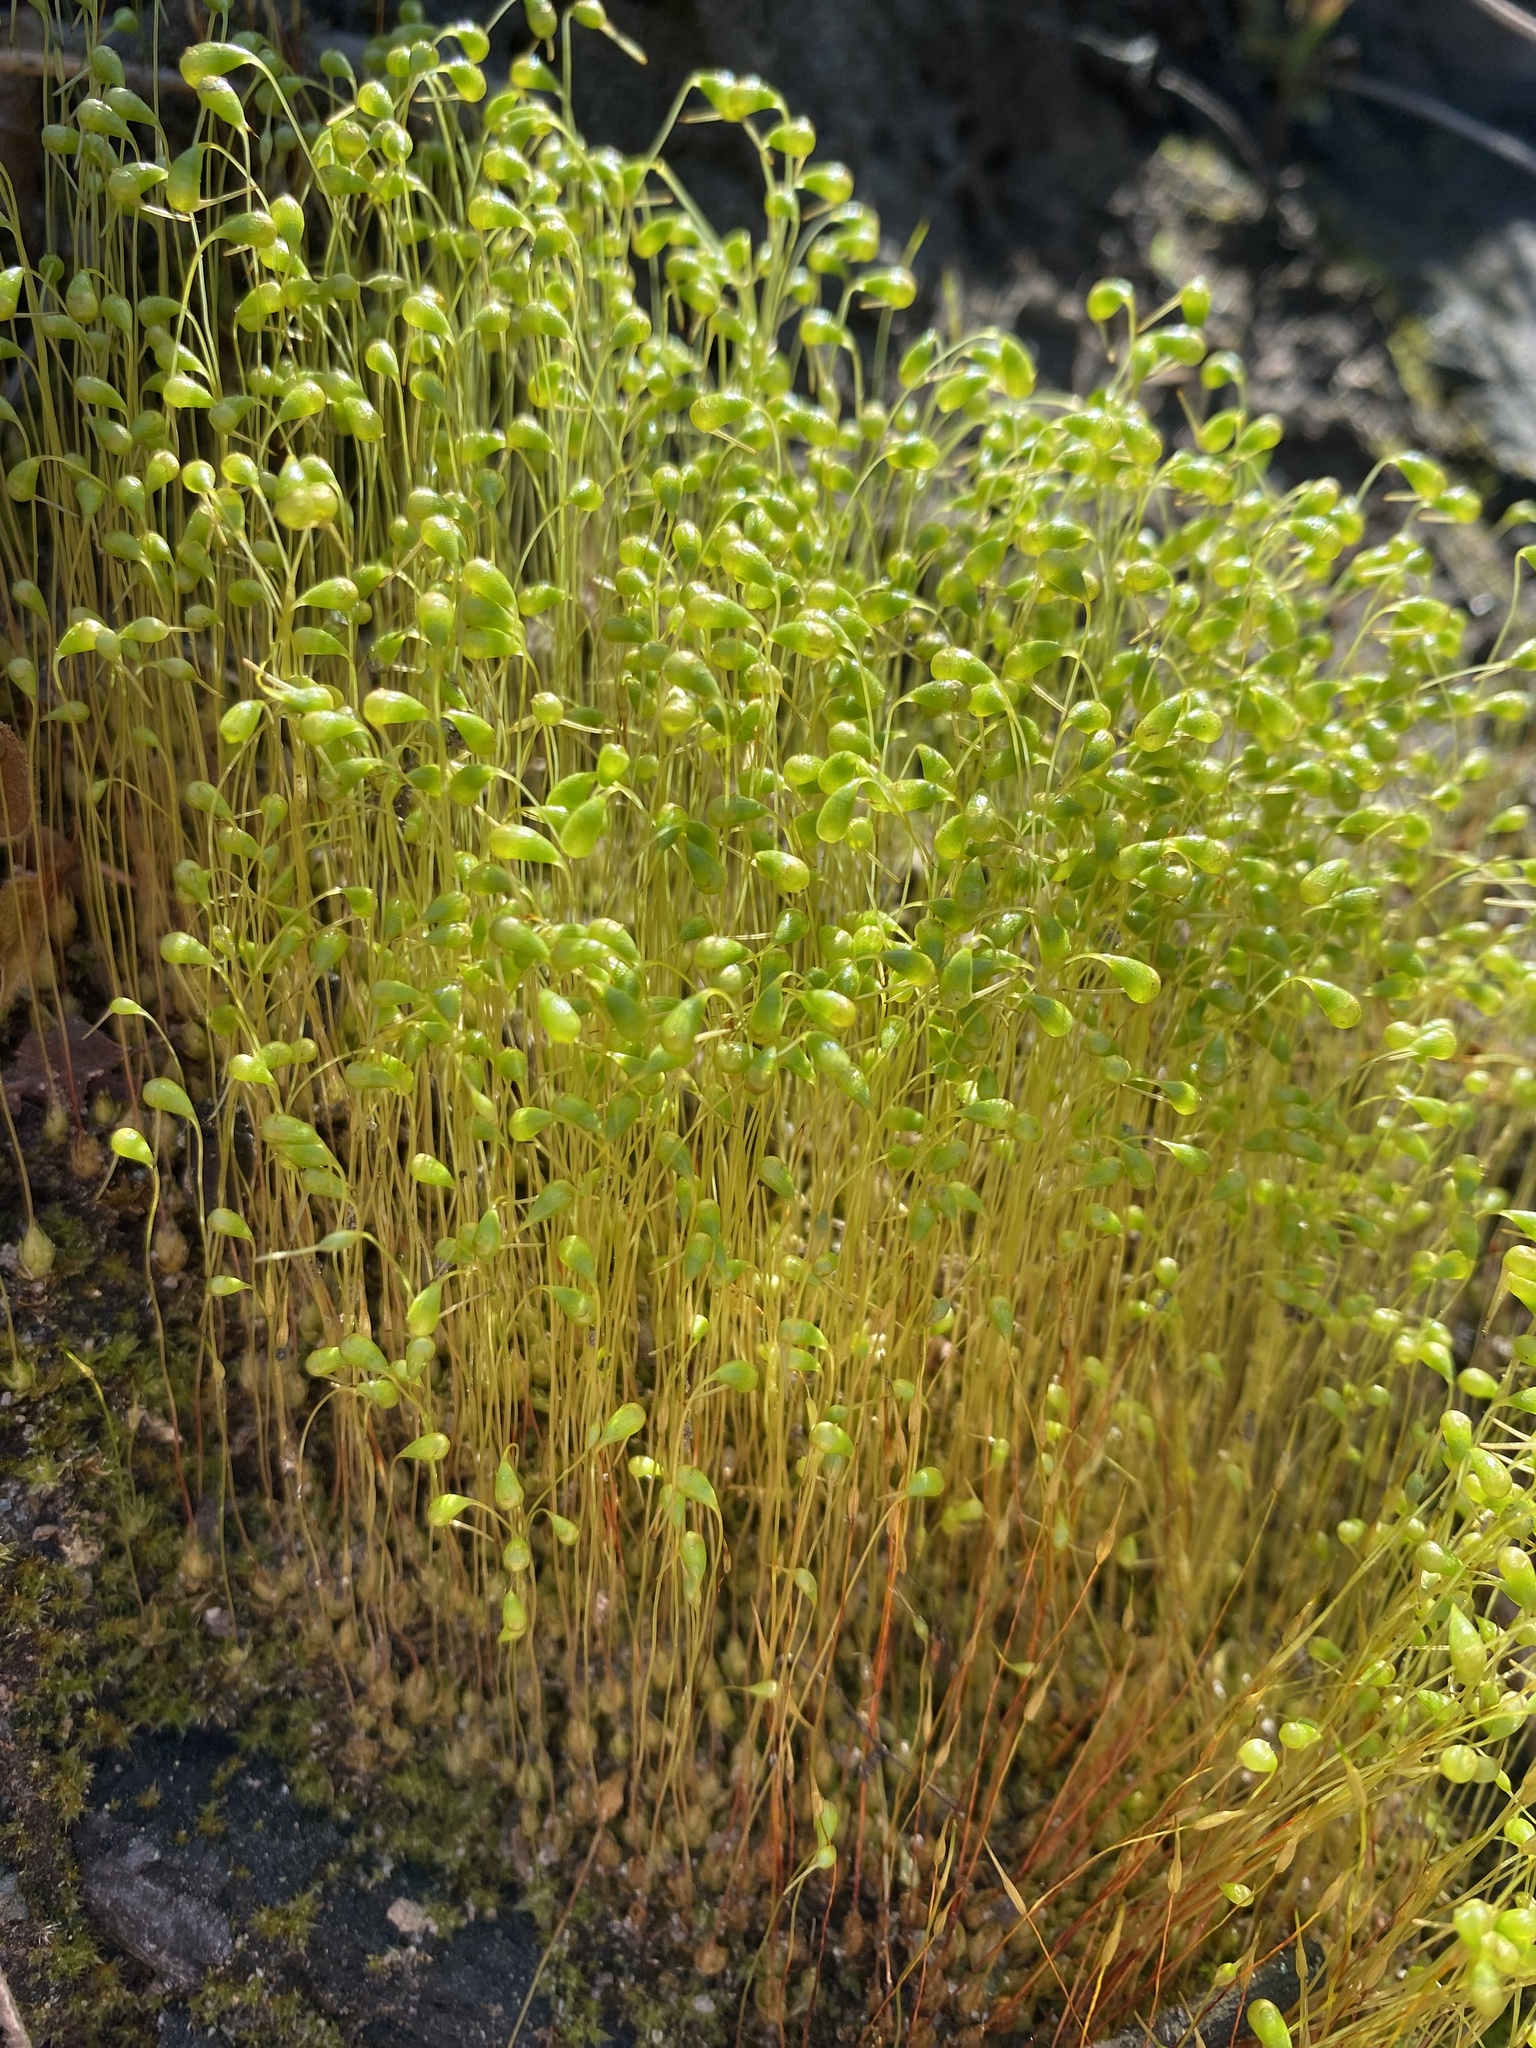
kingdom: Plantae
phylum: Bryophyta
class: Bryopsida
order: Funariales
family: Funariaceae
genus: Funaria
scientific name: Funaria hygrometrica
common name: Common cord moss
